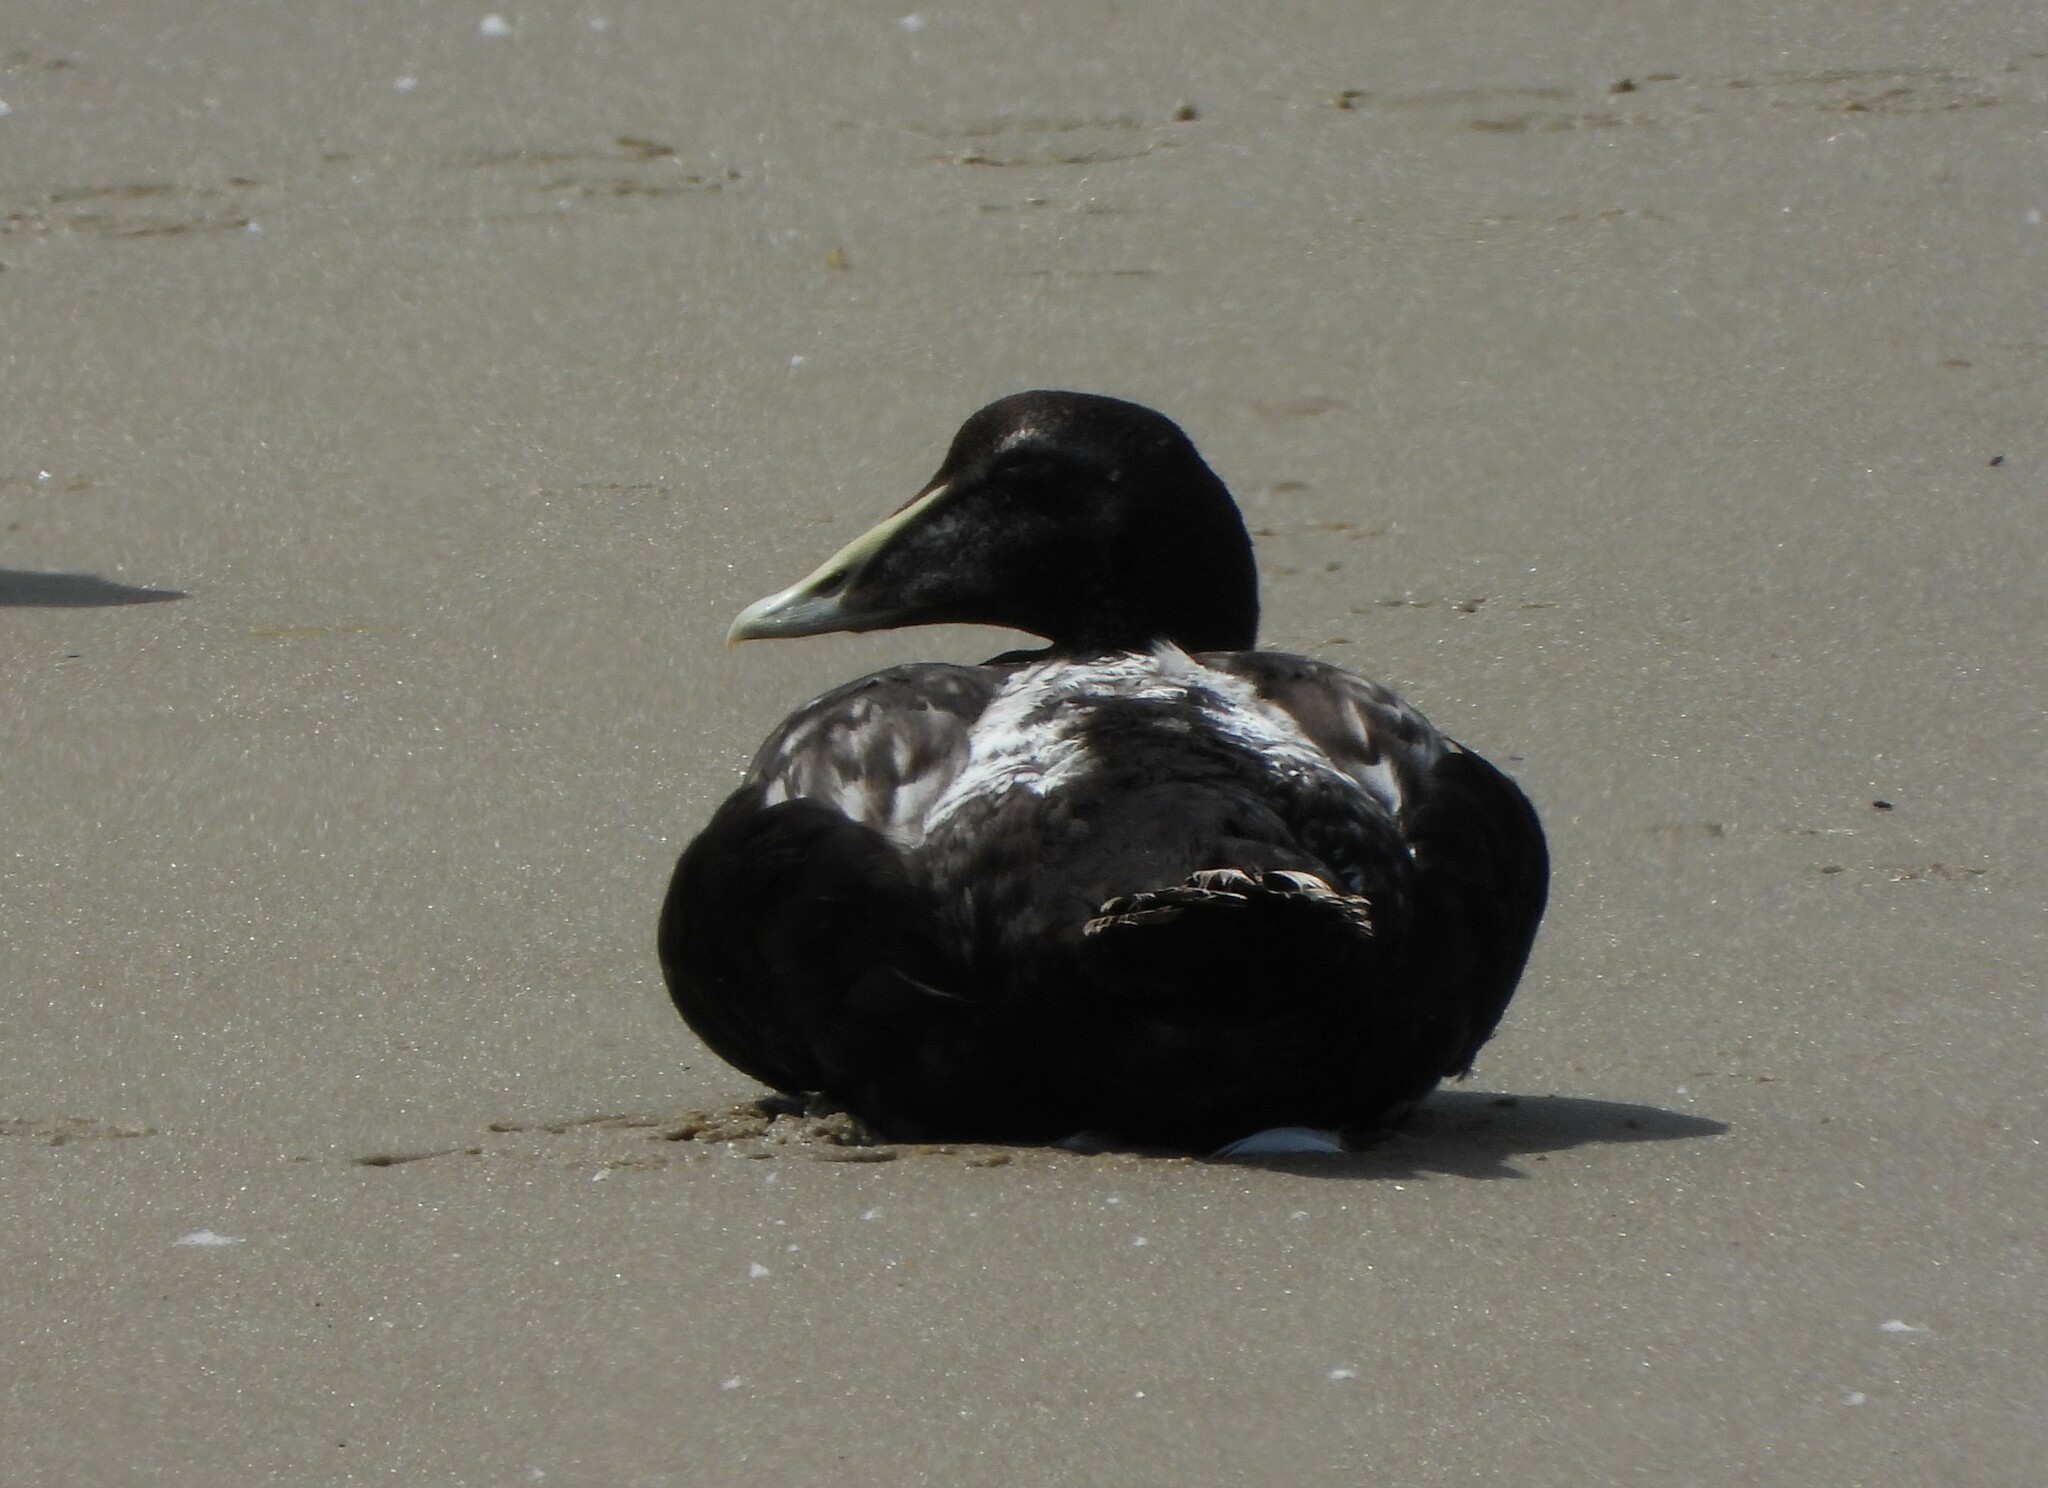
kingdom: Animalia
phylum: Chordata
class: Aves
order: Anseriformes
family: Anatidae
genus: Somateria
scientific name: Somateria mollissima
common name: Common eider
